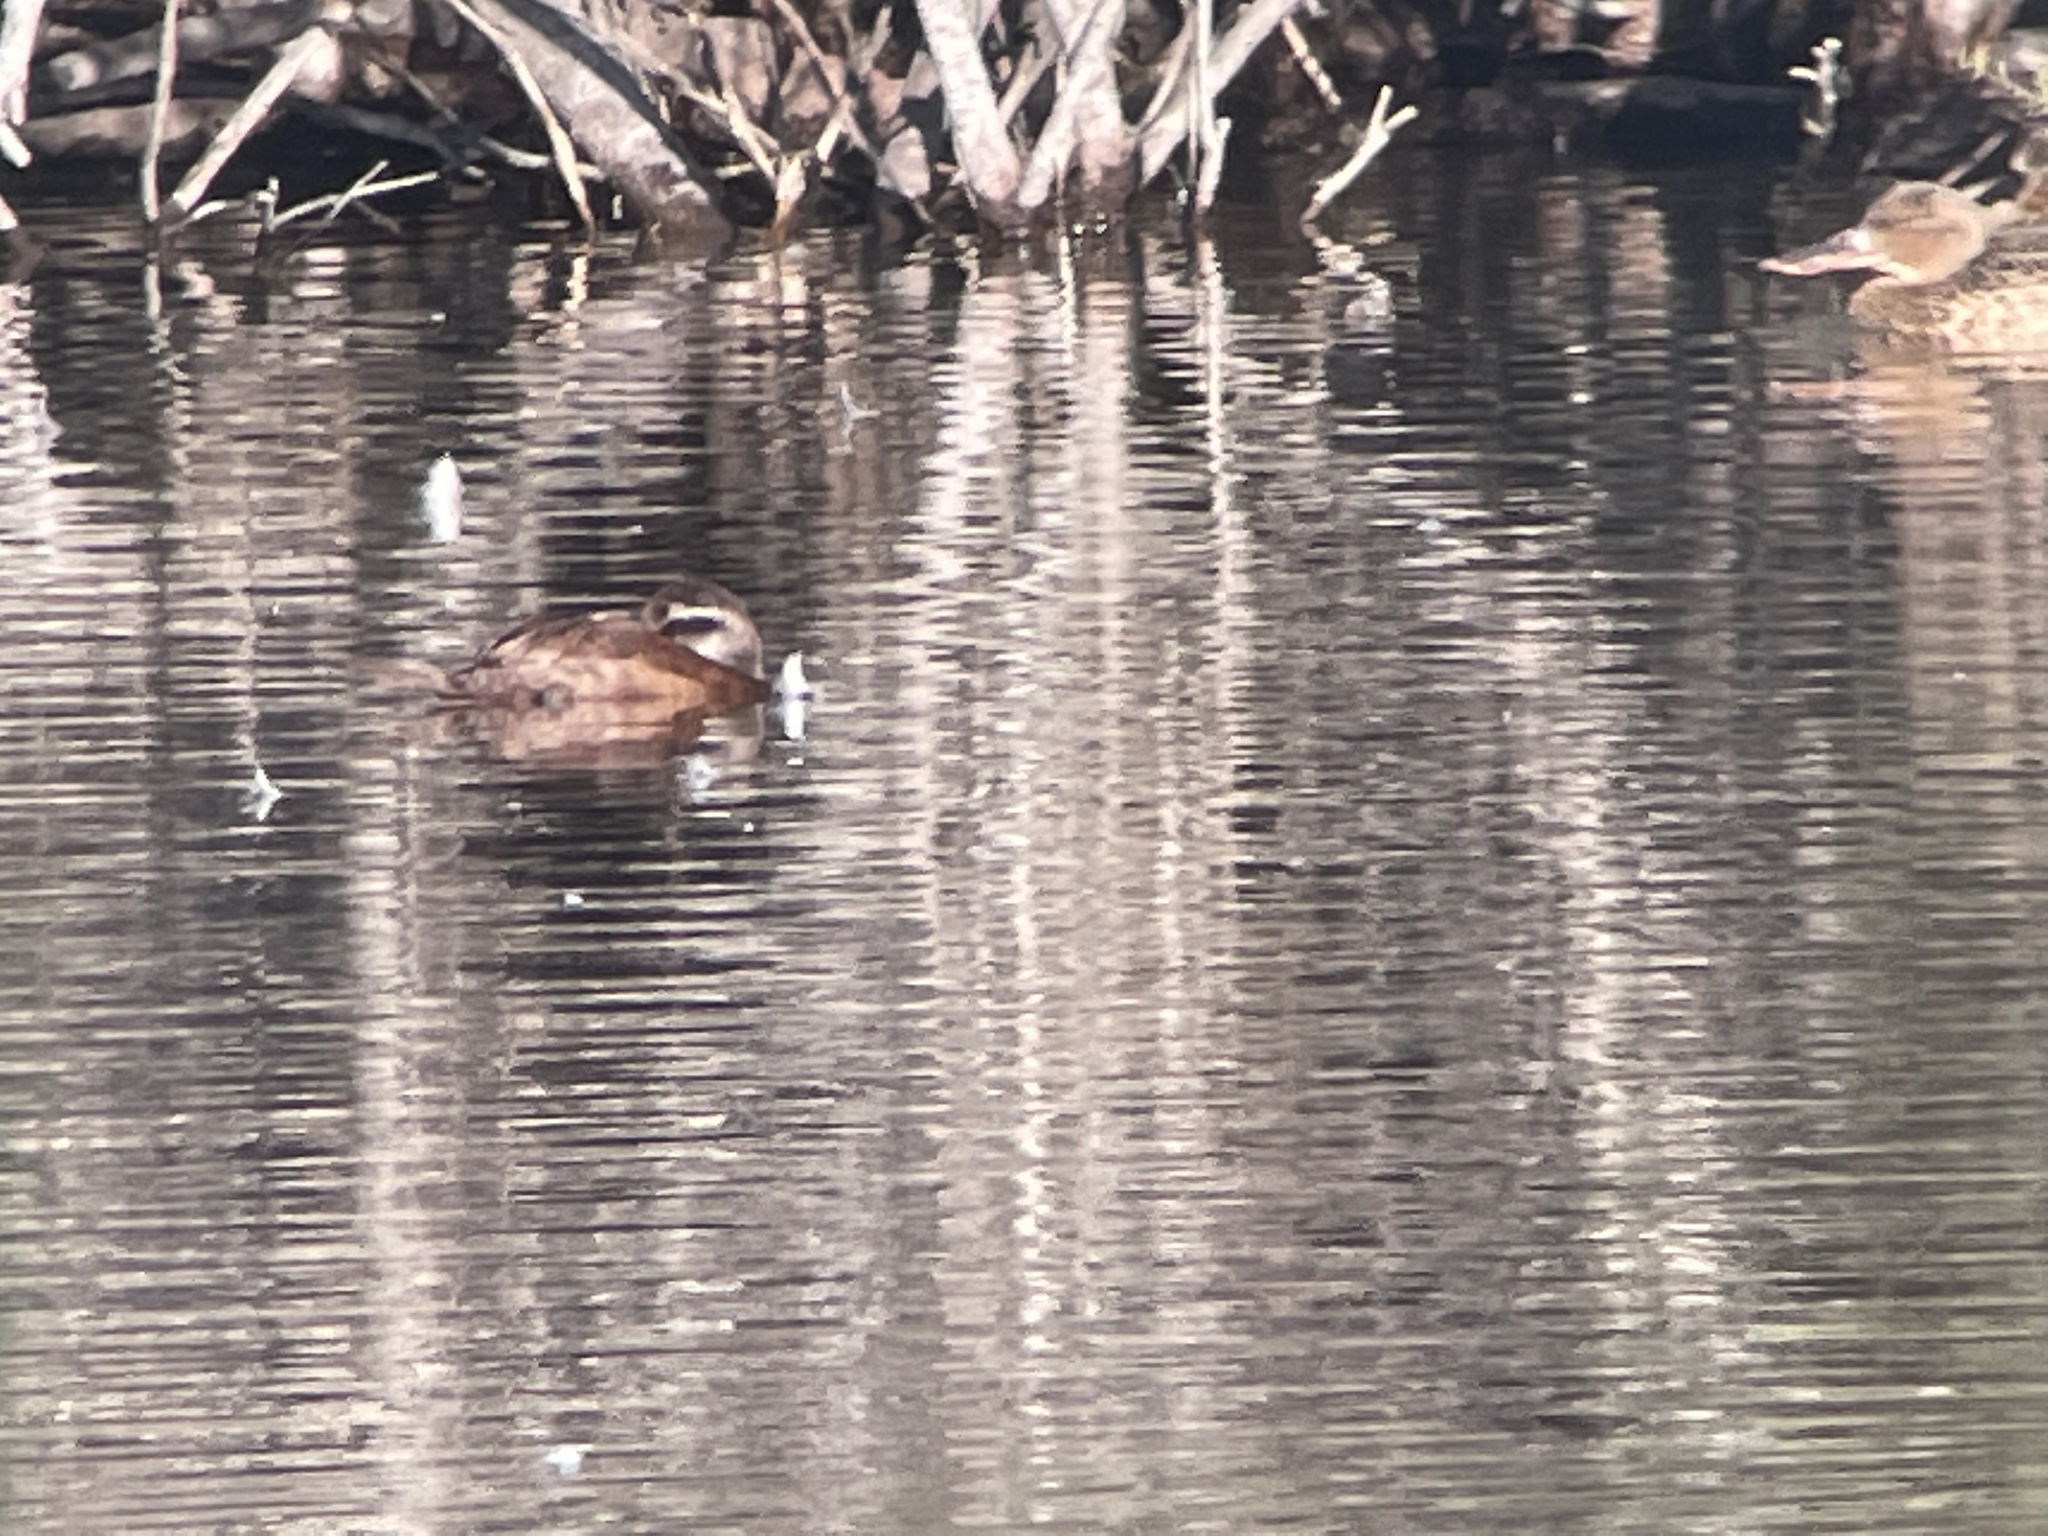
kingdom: Animalia
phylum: Chordata
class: Aves
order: Anseriformes
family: Anatidae
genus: Oxyura
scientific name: Oxyura leucocephala
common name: White-headed duck
